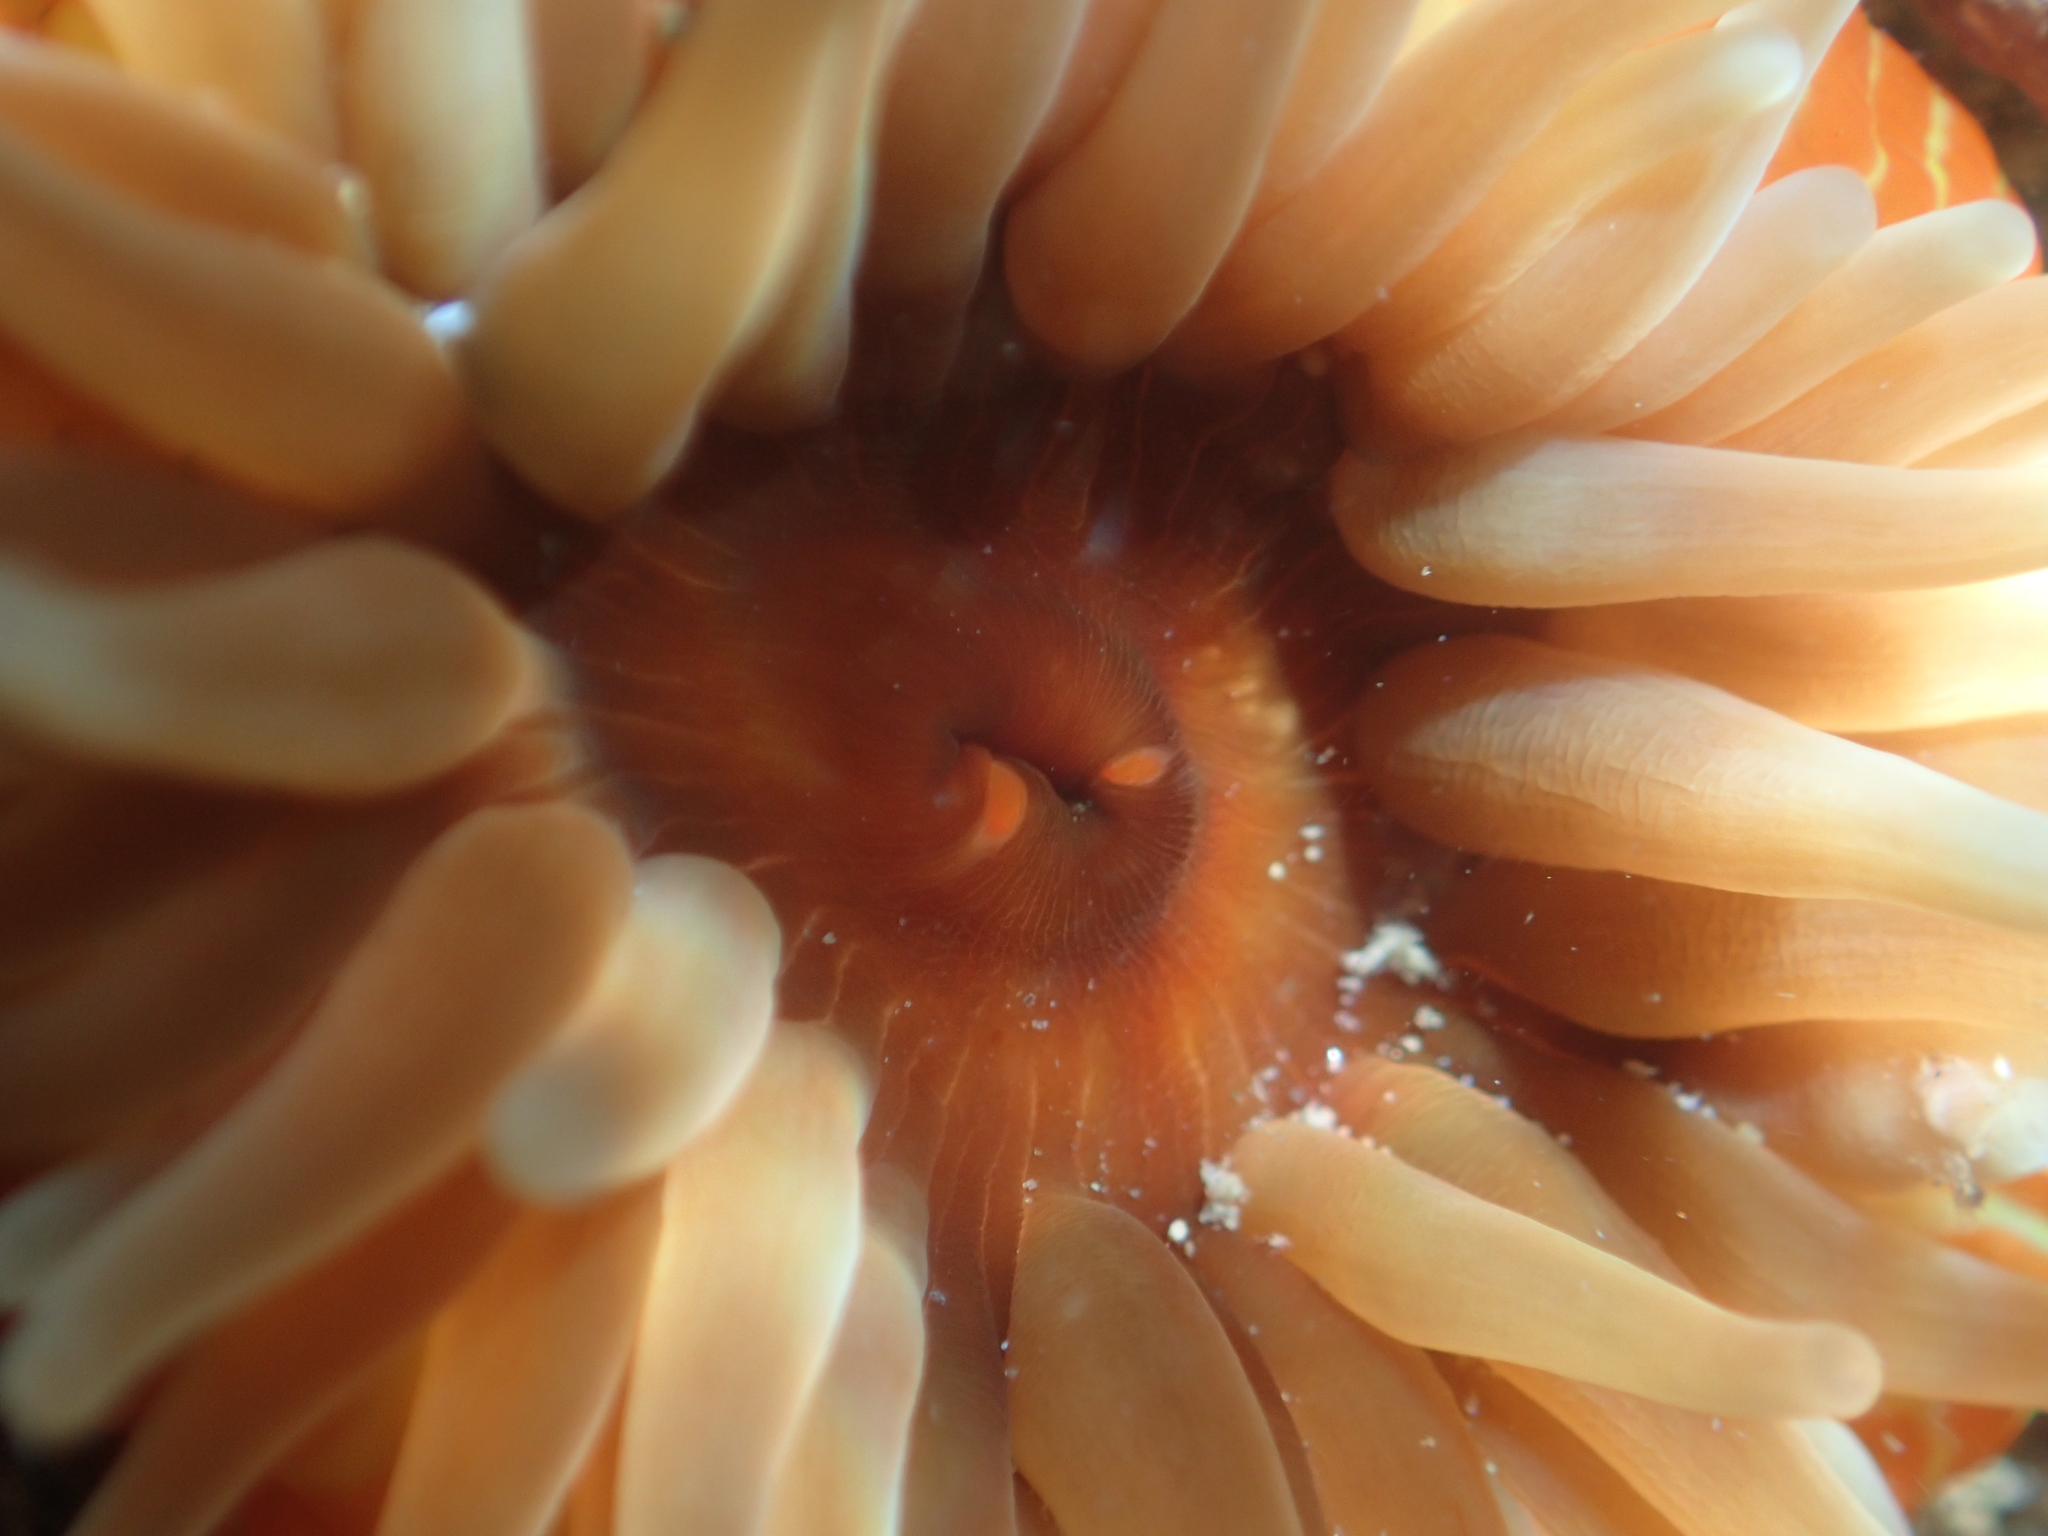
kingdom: Animalia
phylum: Cnidaria
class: Anthozoa
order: Actiniaria
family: Actiniidae
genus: Epiactis
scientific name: Epiactis thompsoni
